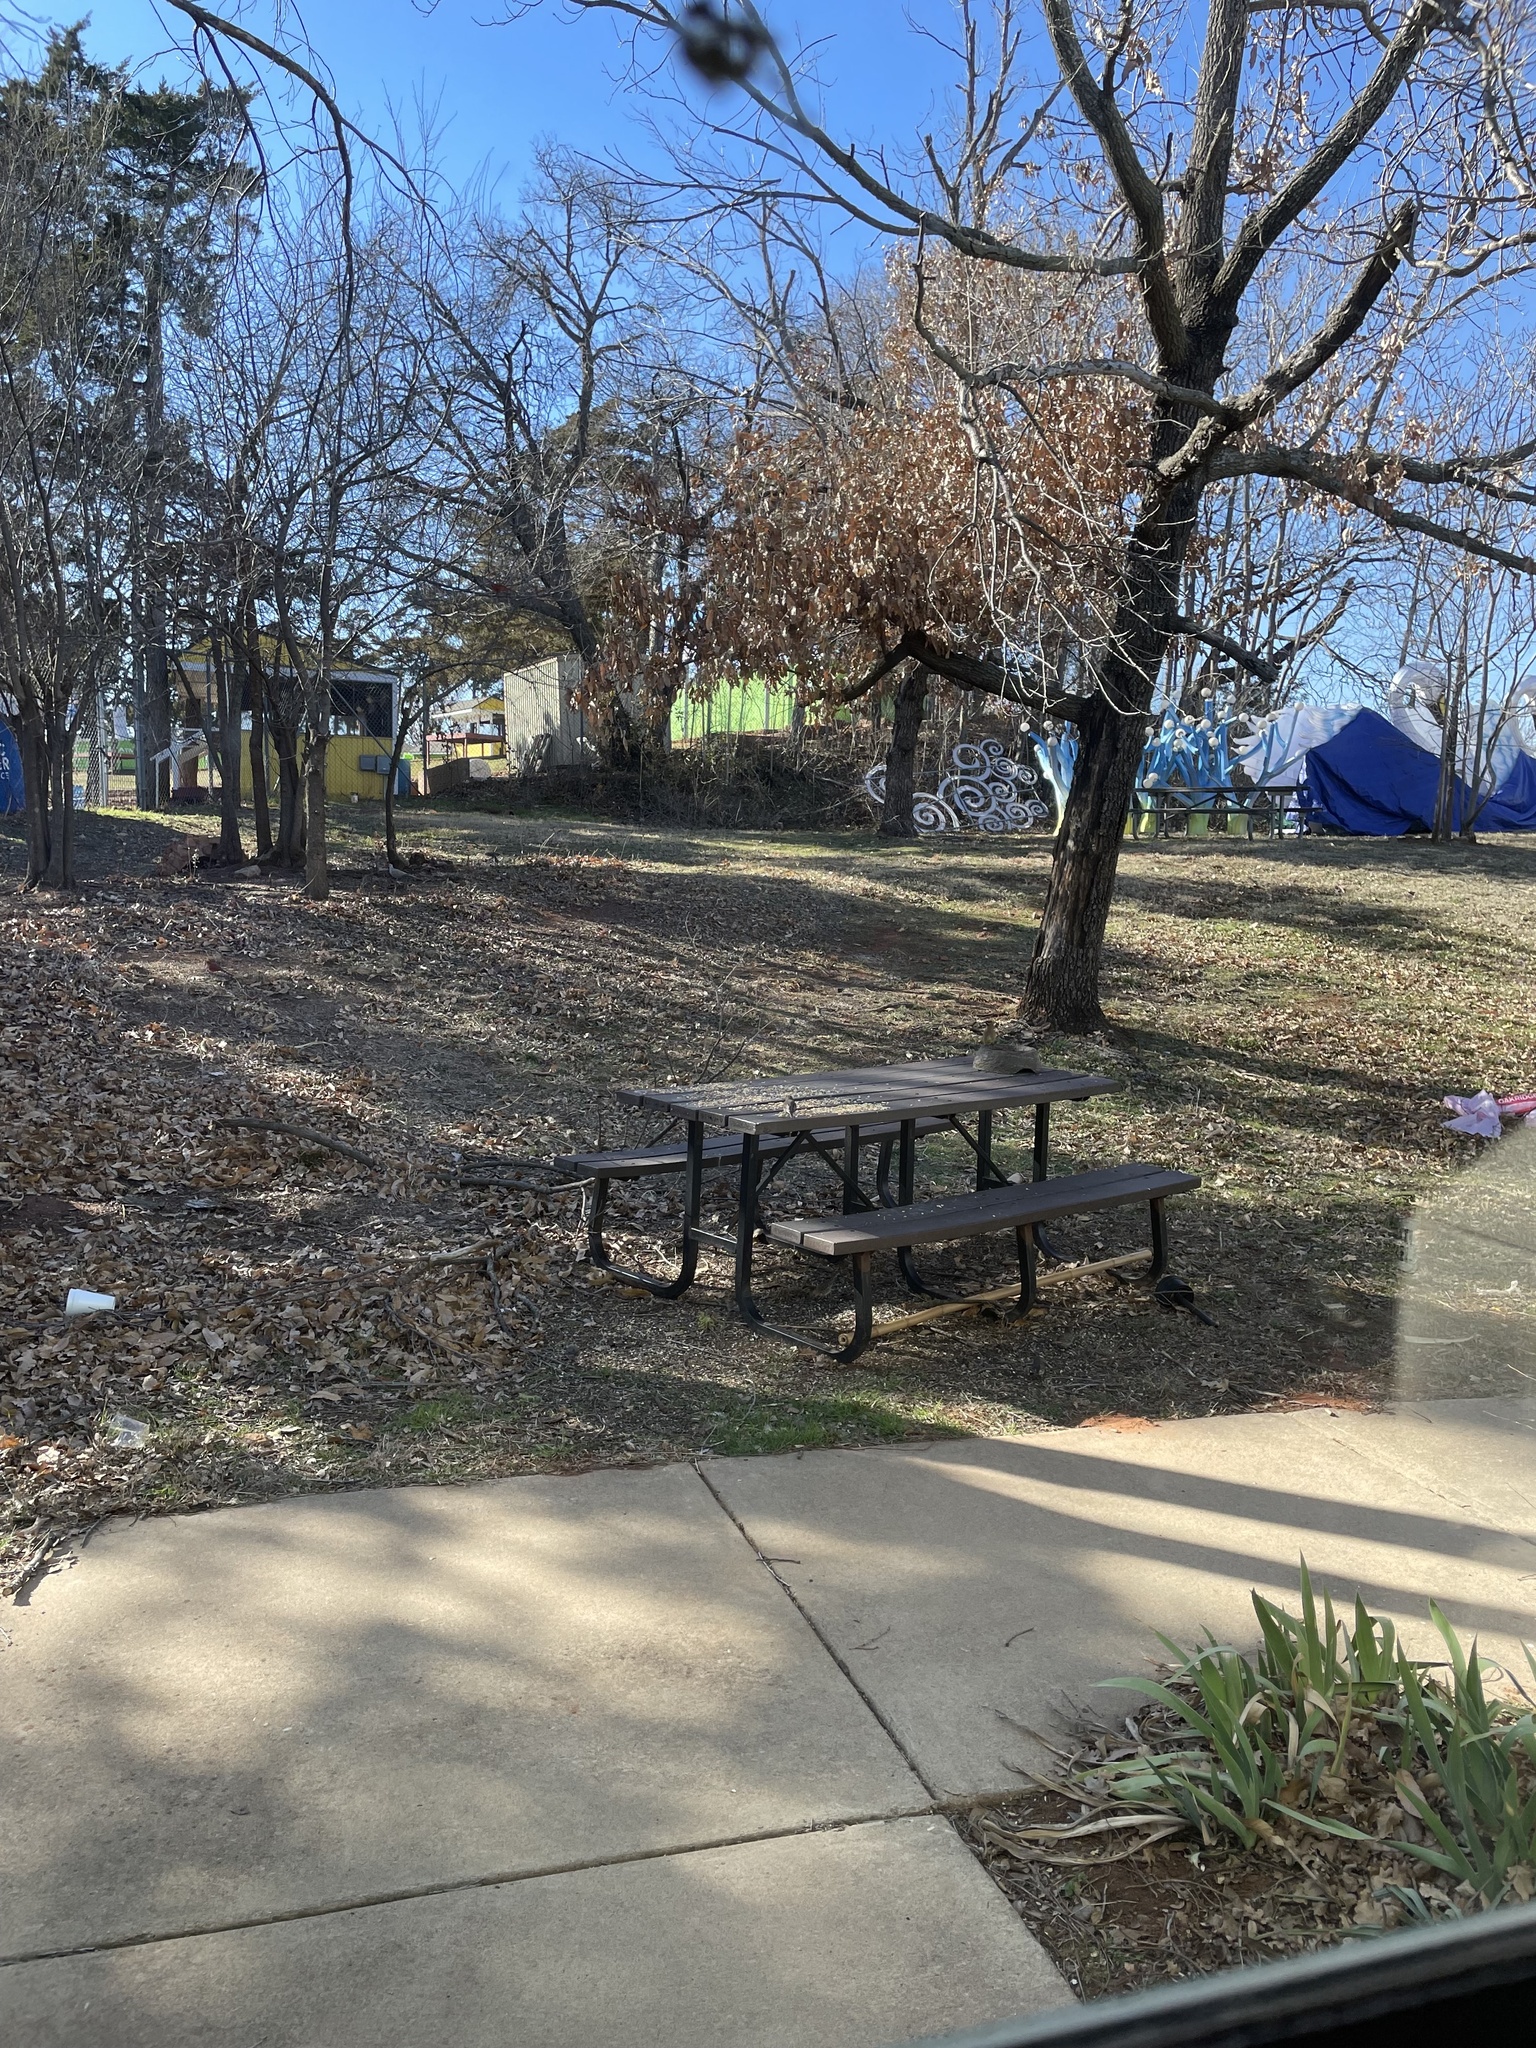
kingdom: Animalia
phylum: Chordata
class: Aves
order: Passeriformes
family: Bombycillidae
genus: Bombycilla
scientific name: Bombycilla cedrorum
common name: Cedar waxwing
